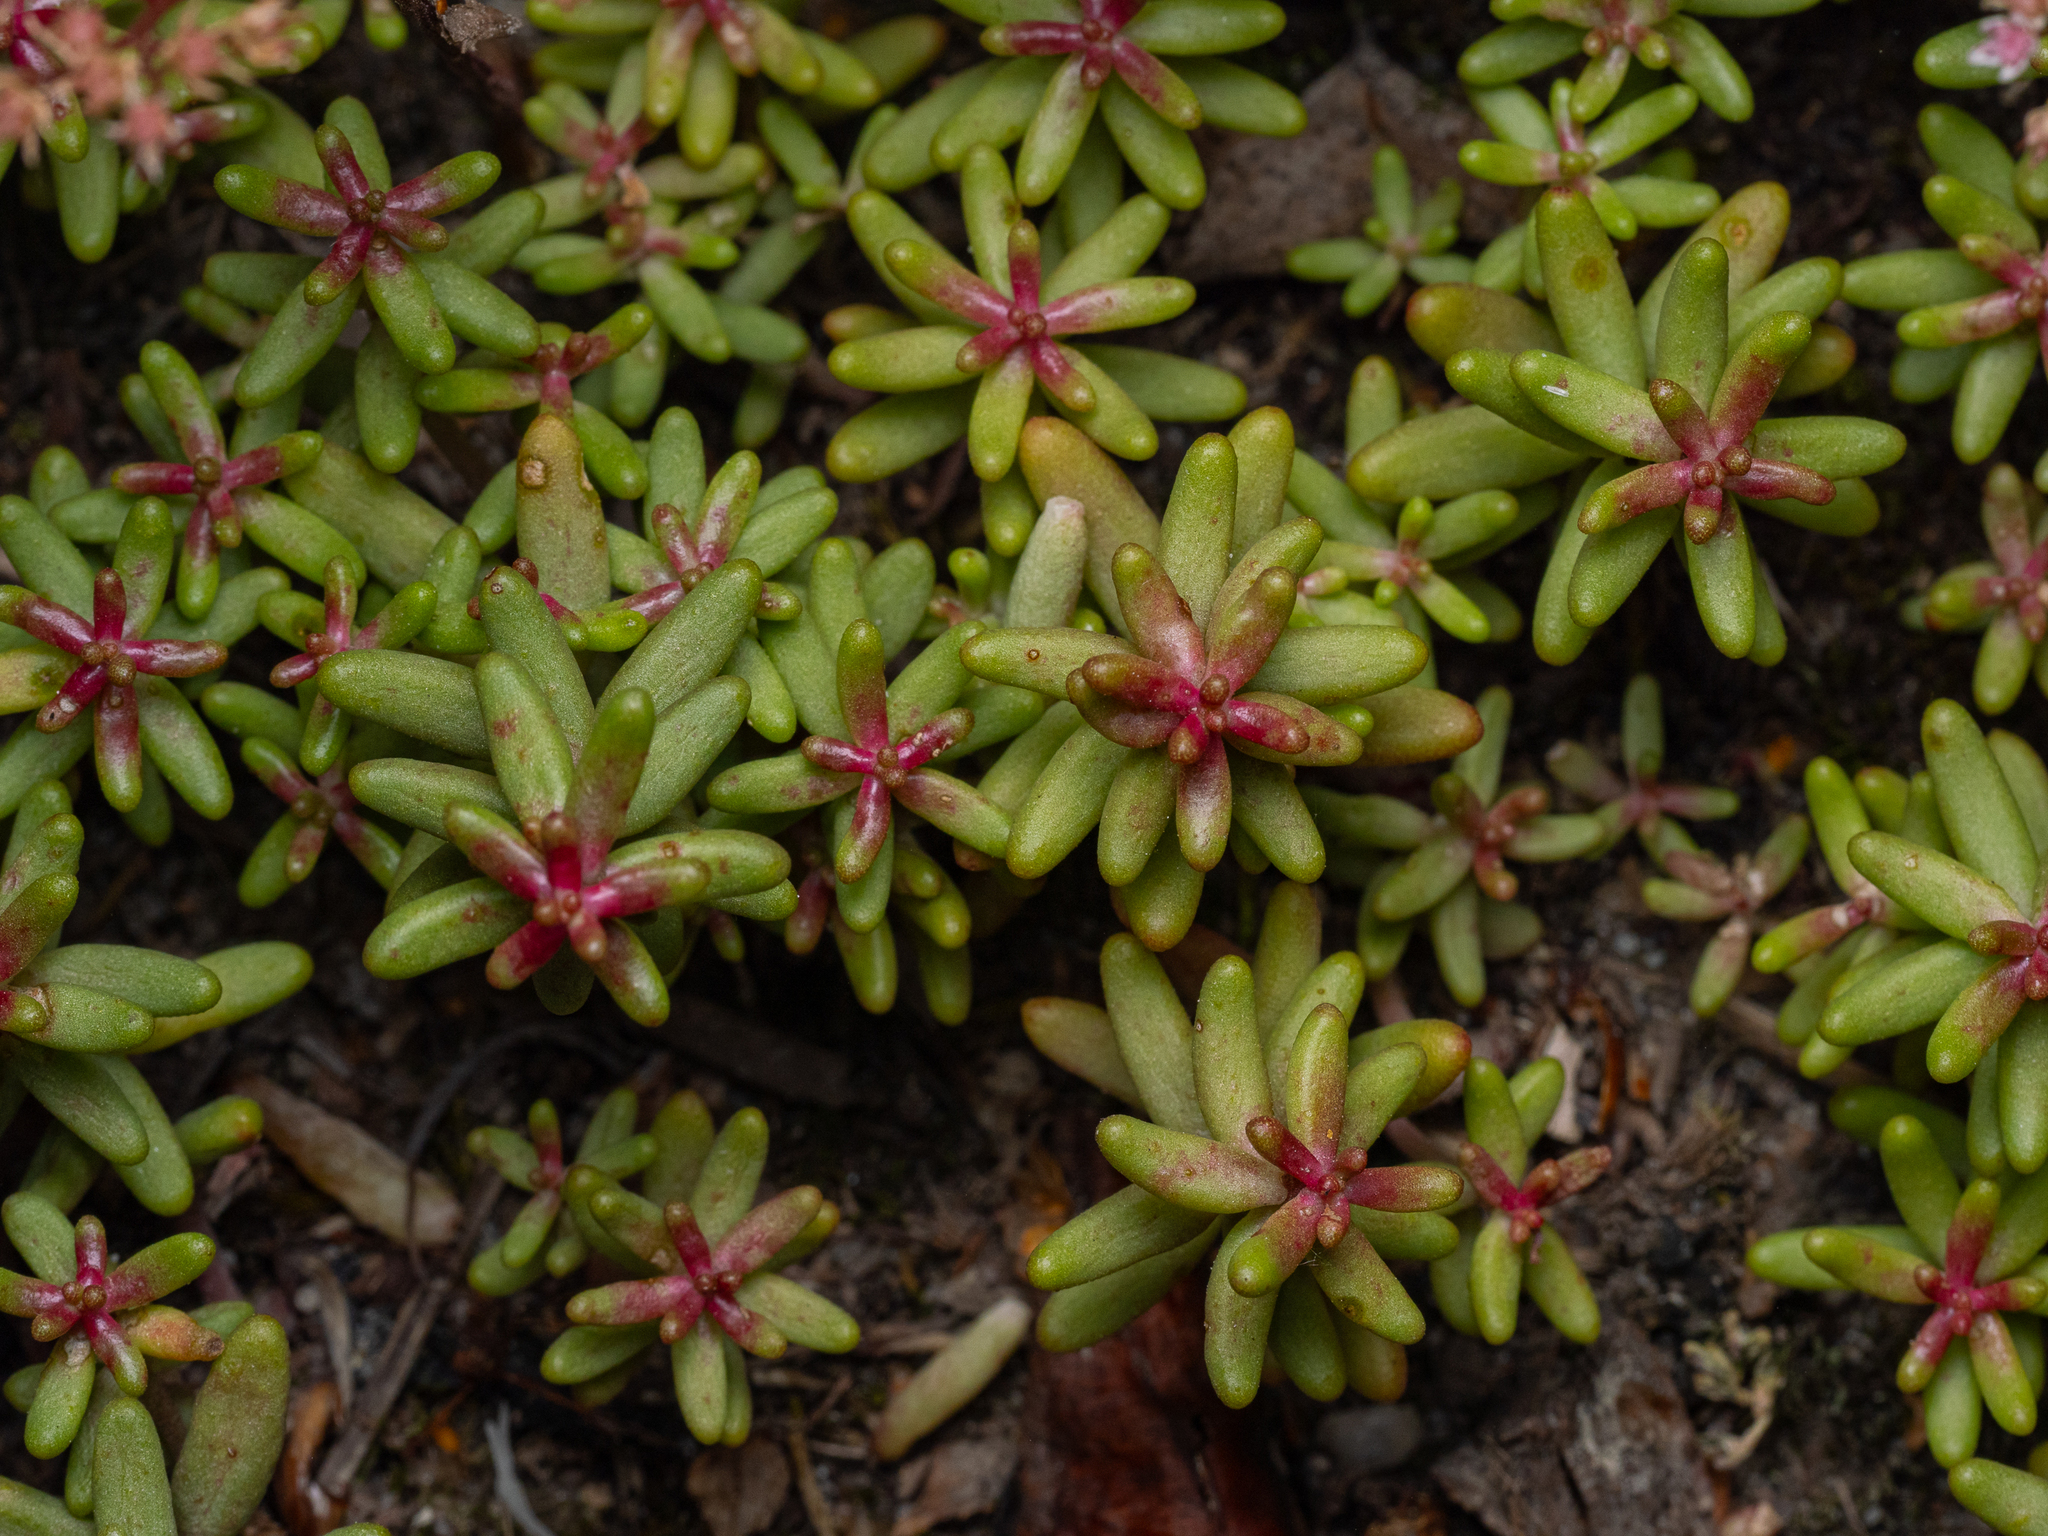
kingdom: Plantae
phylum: Tracheophyta
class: Magnoliopsida
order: Saxifragales
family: Crassulaceae
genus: Sedum
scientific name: Sedum album
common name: White stonecrop
